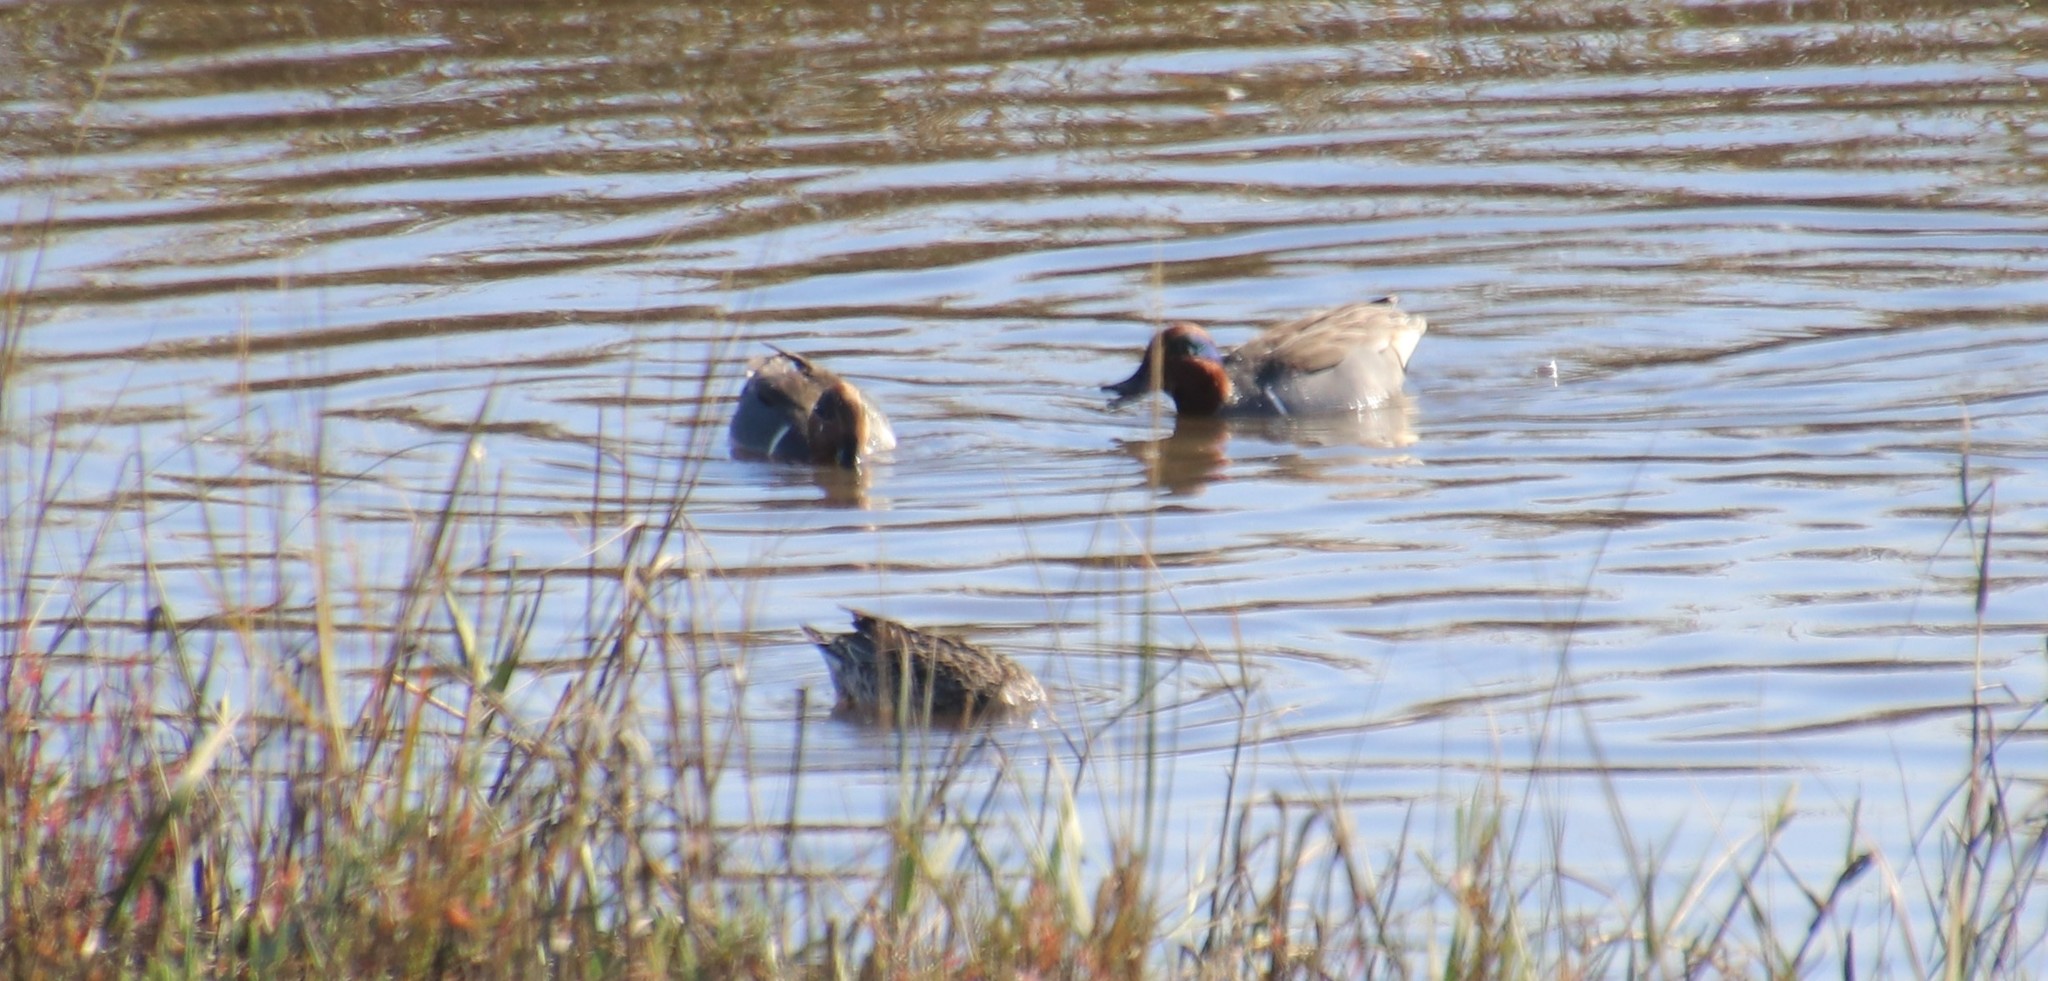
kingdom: Animalia
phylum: Chordata
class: Aves
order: Anseriformes
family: Anatidae
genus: Anas
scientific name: Anas crecca
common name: Eurasian teal
